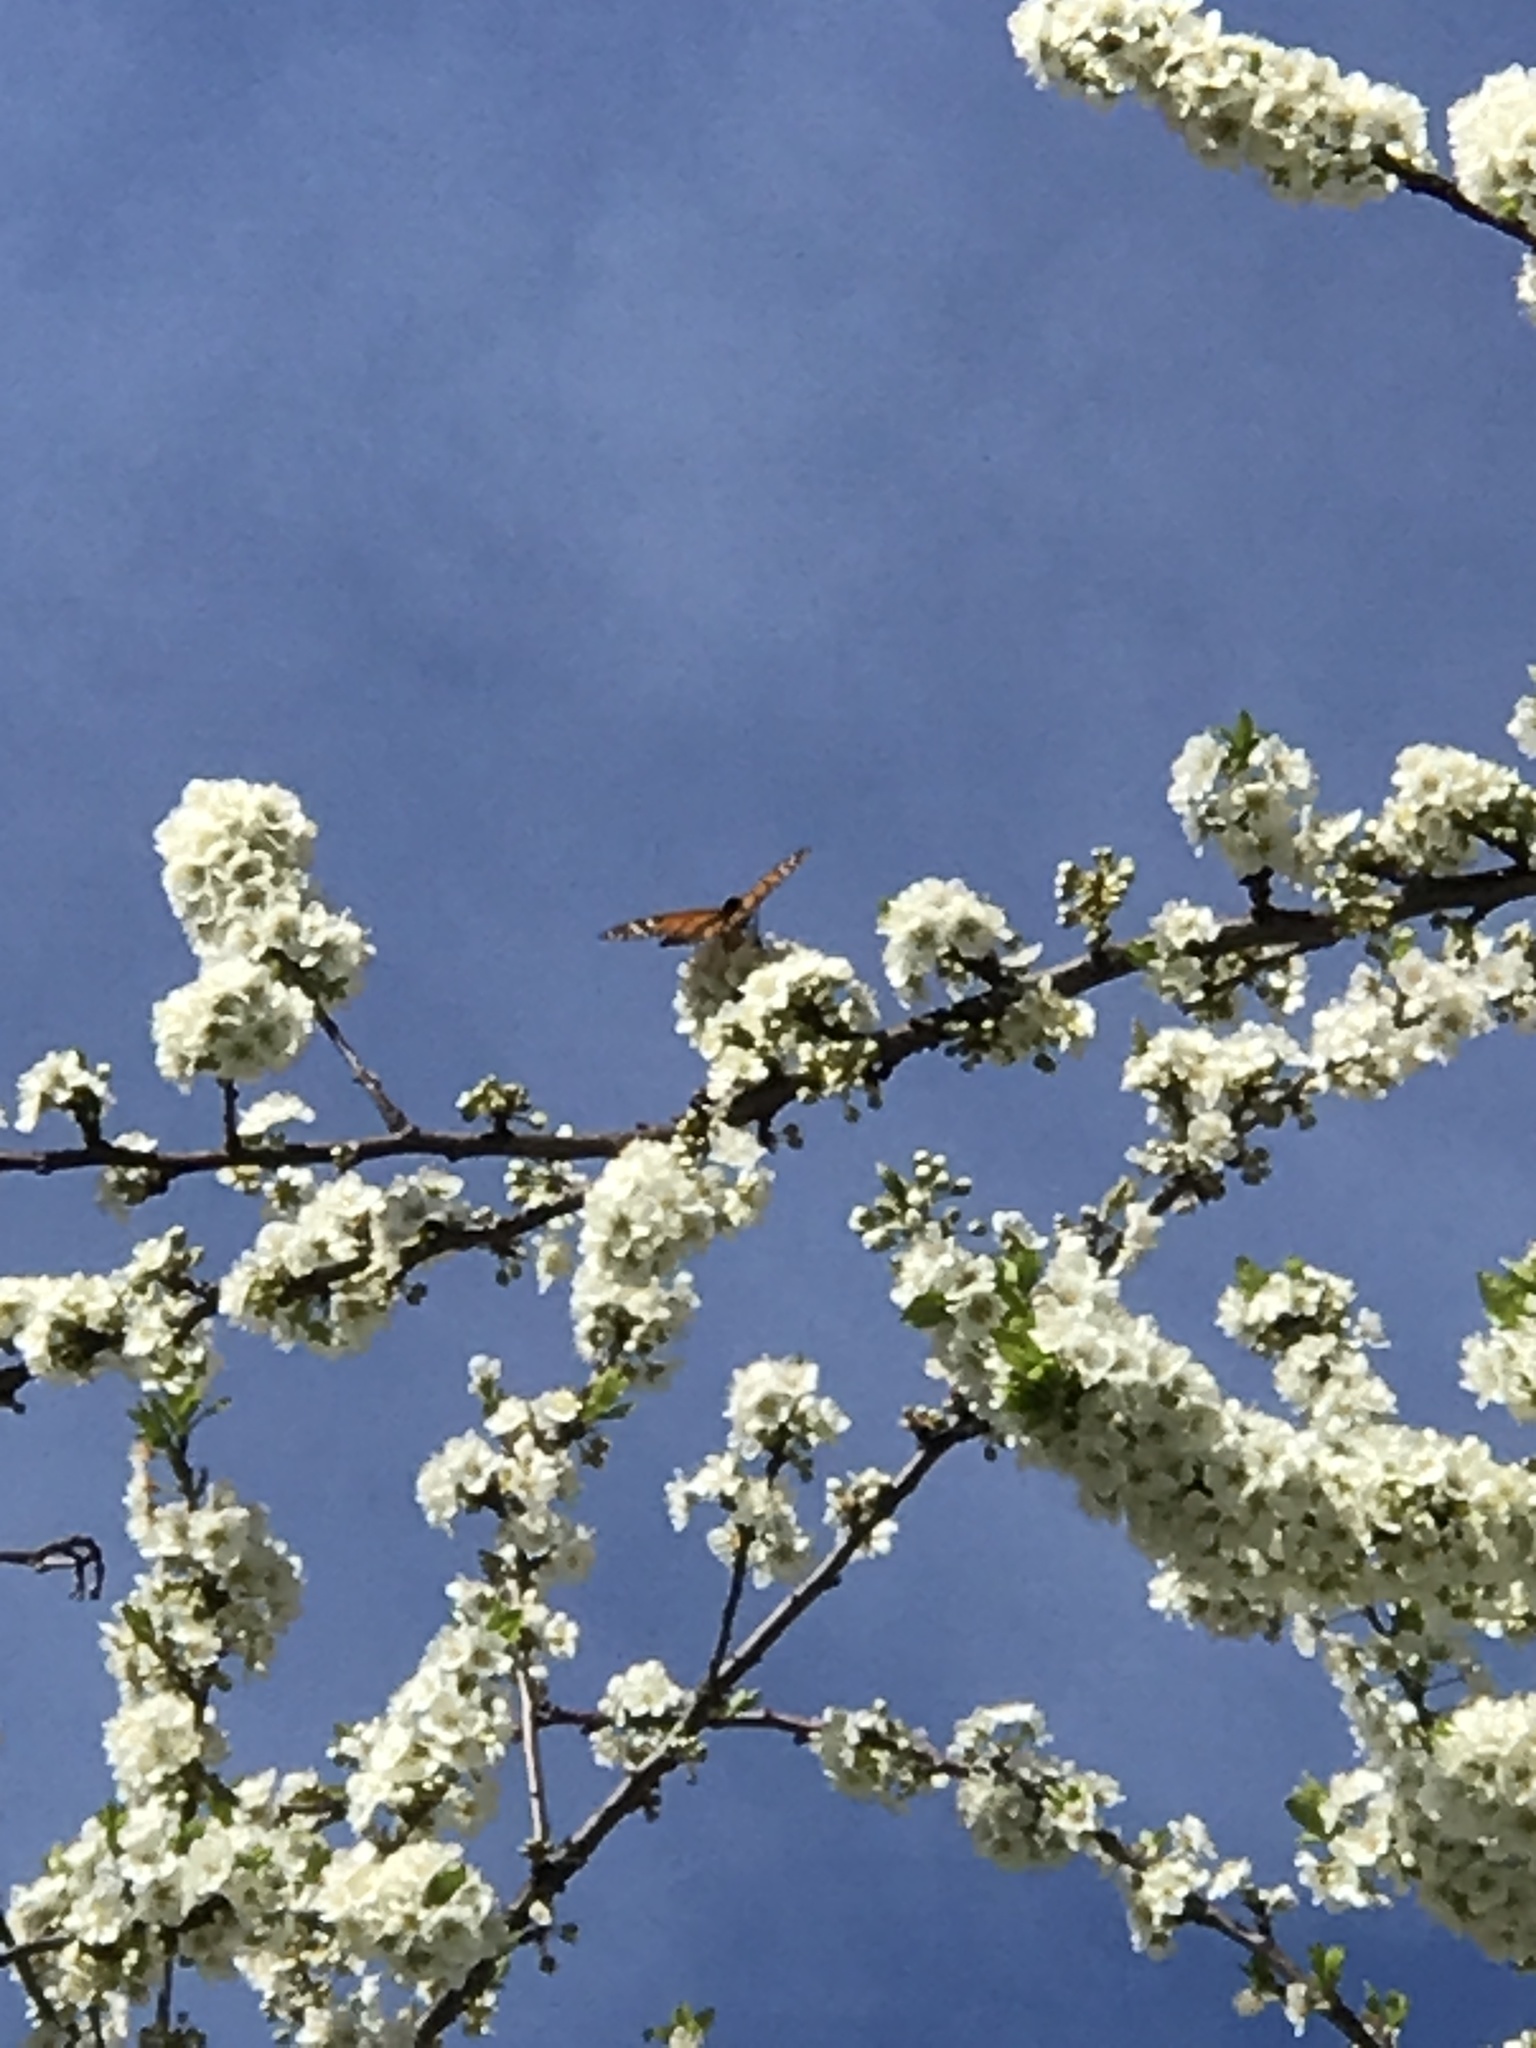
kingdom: Animalia
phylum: Arthropoda
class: Insecta
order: Lepidoptera
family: Nymphalidae
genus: Danaus
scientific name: Danaus plexippus
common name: Monarch
